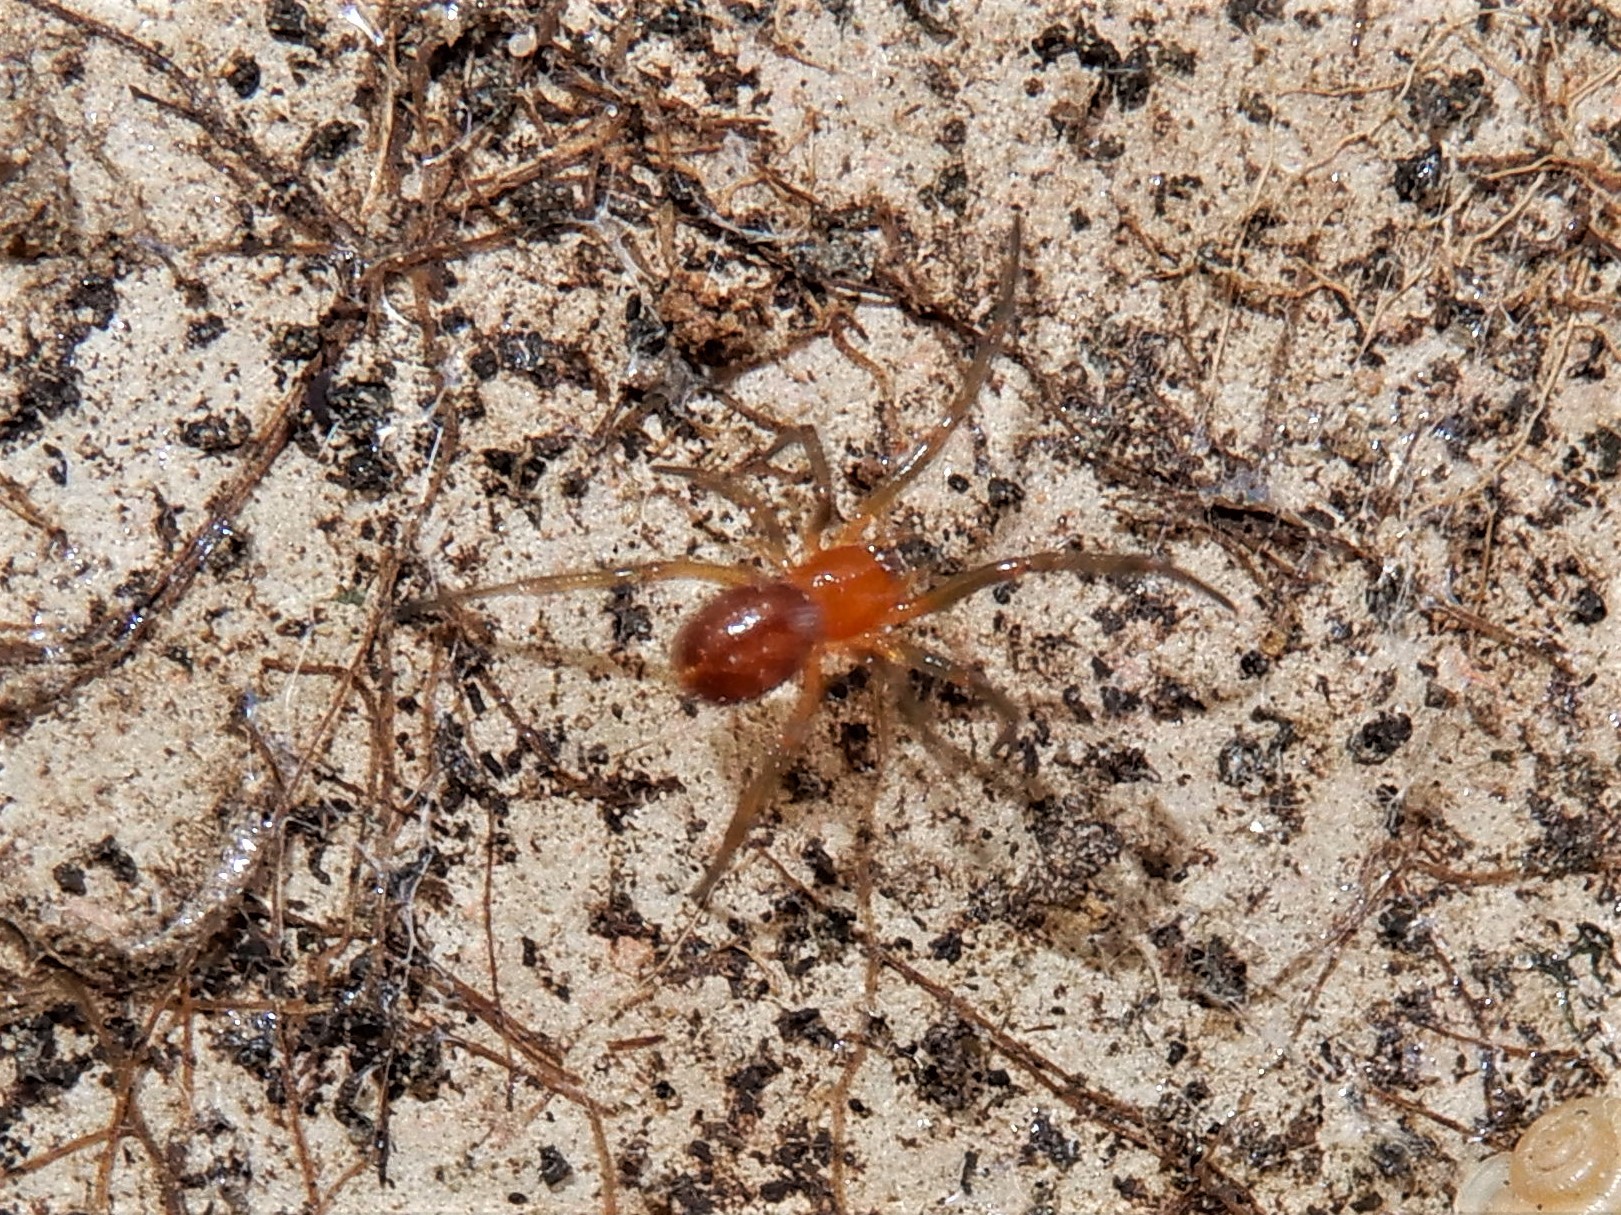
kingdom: Animalia
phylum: Arthropoda
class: Arachnida
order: Araneae
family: Theridiidae
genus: Steatoda
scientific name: Steatoda capensis
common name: Cobweb weaver
